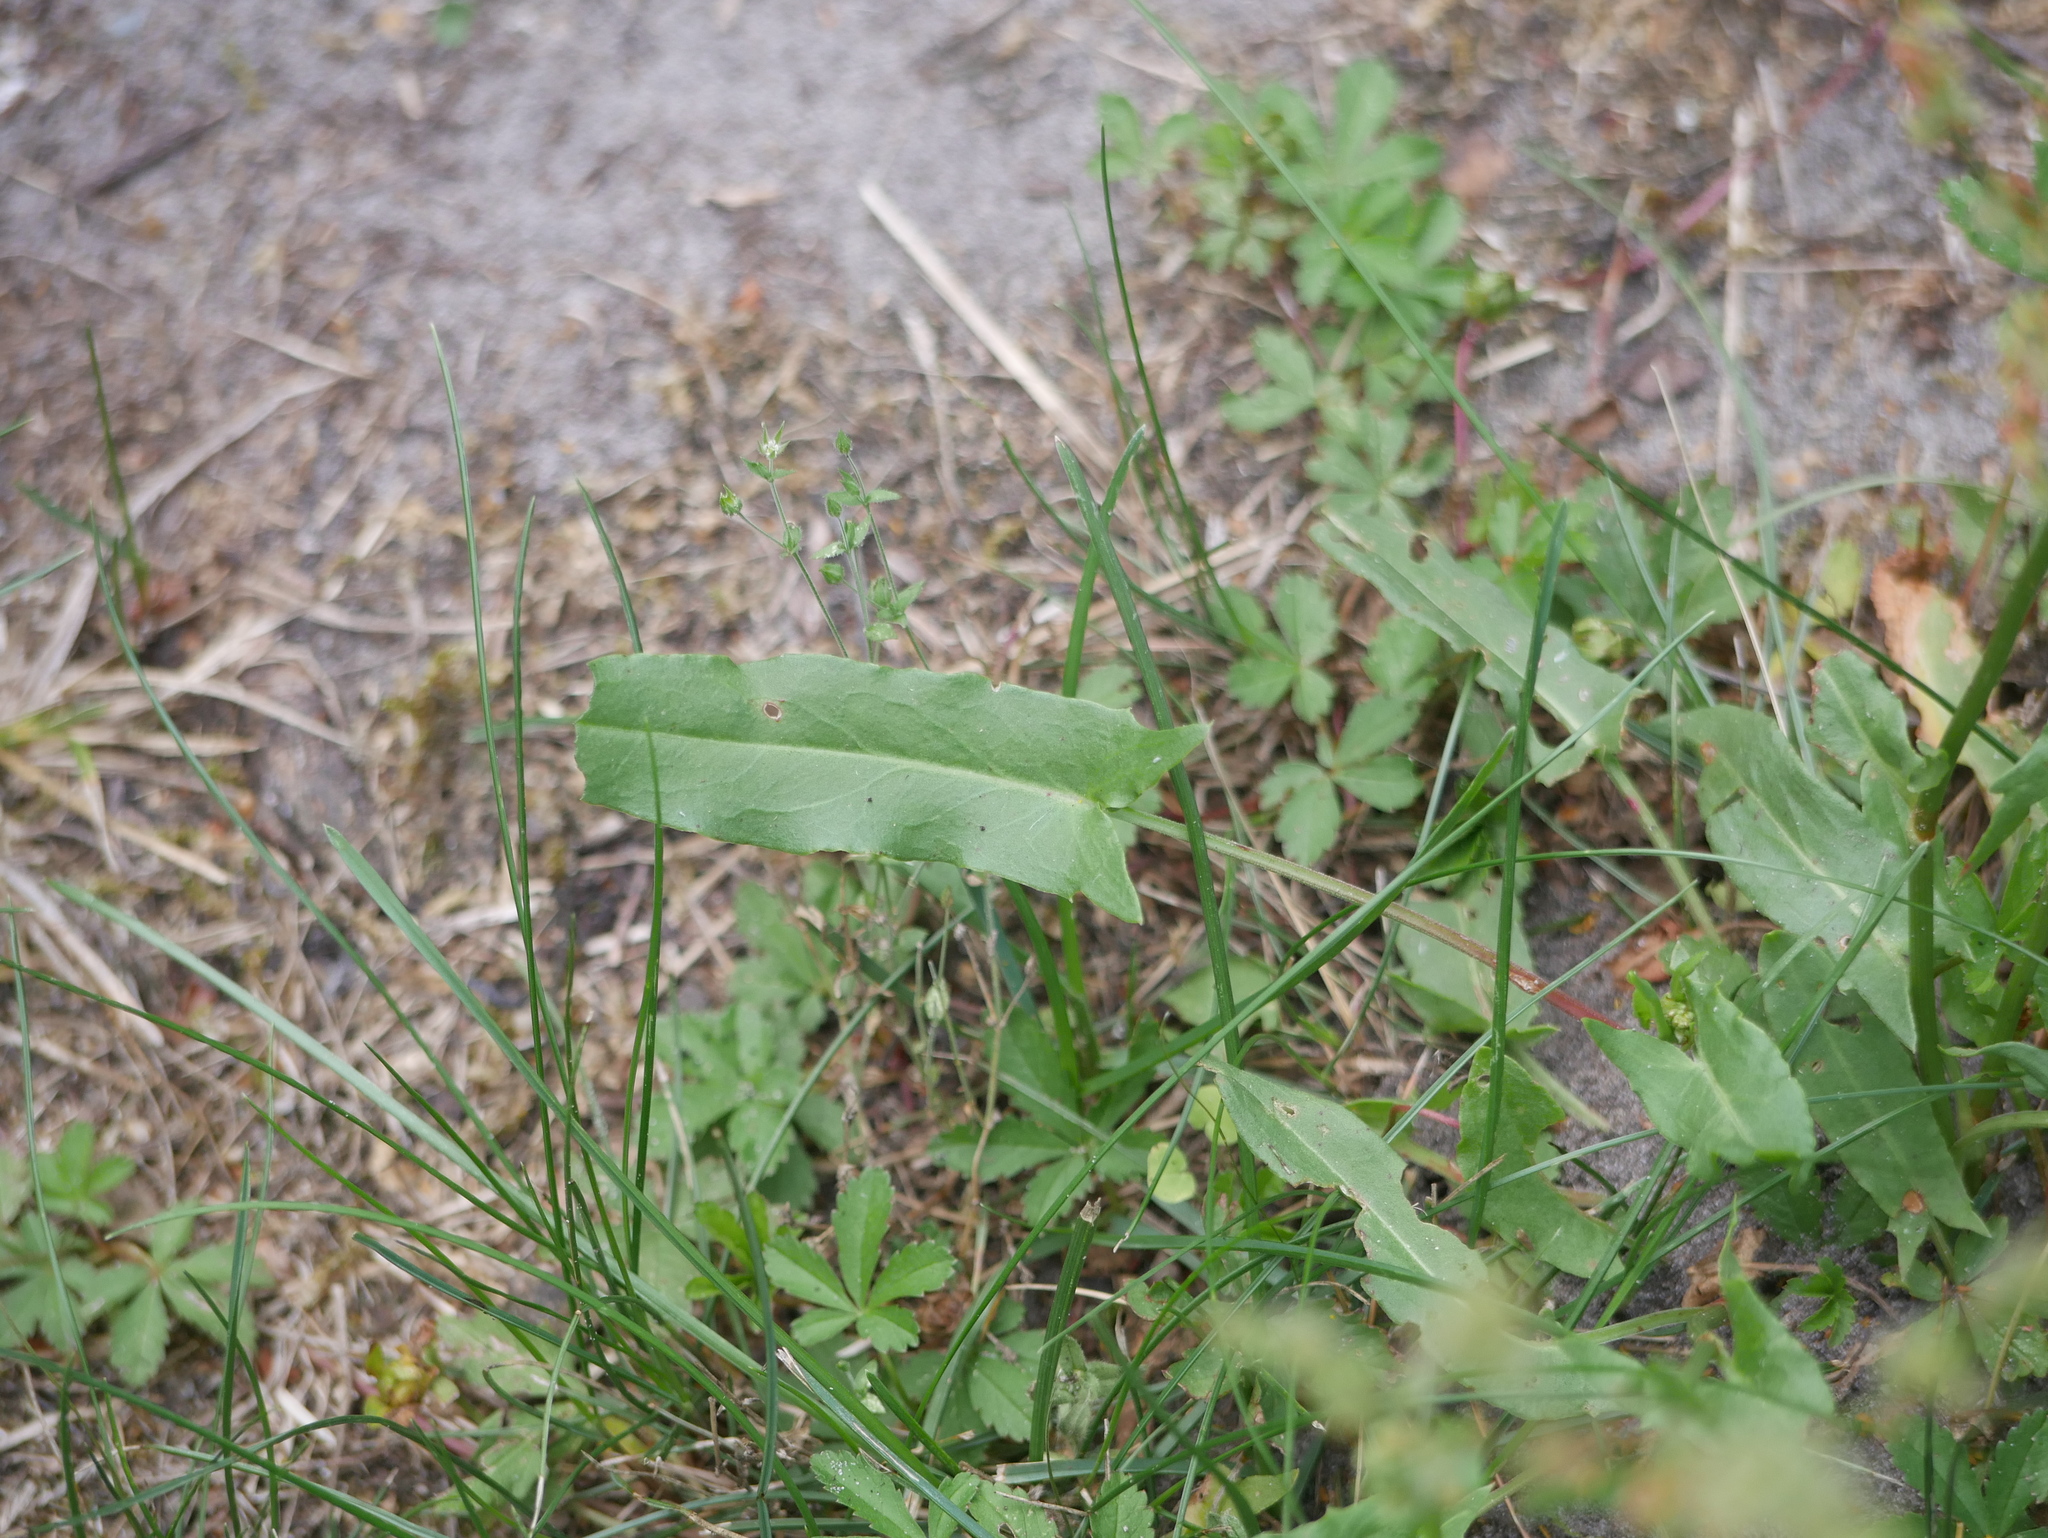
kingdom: Plantae
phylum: Tracheophyta
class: Magnoliopsida
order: Caryophyllales
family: Polygonaceae
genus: Rumex
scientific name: Rumex acetosella
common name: Common sheep sorrel
